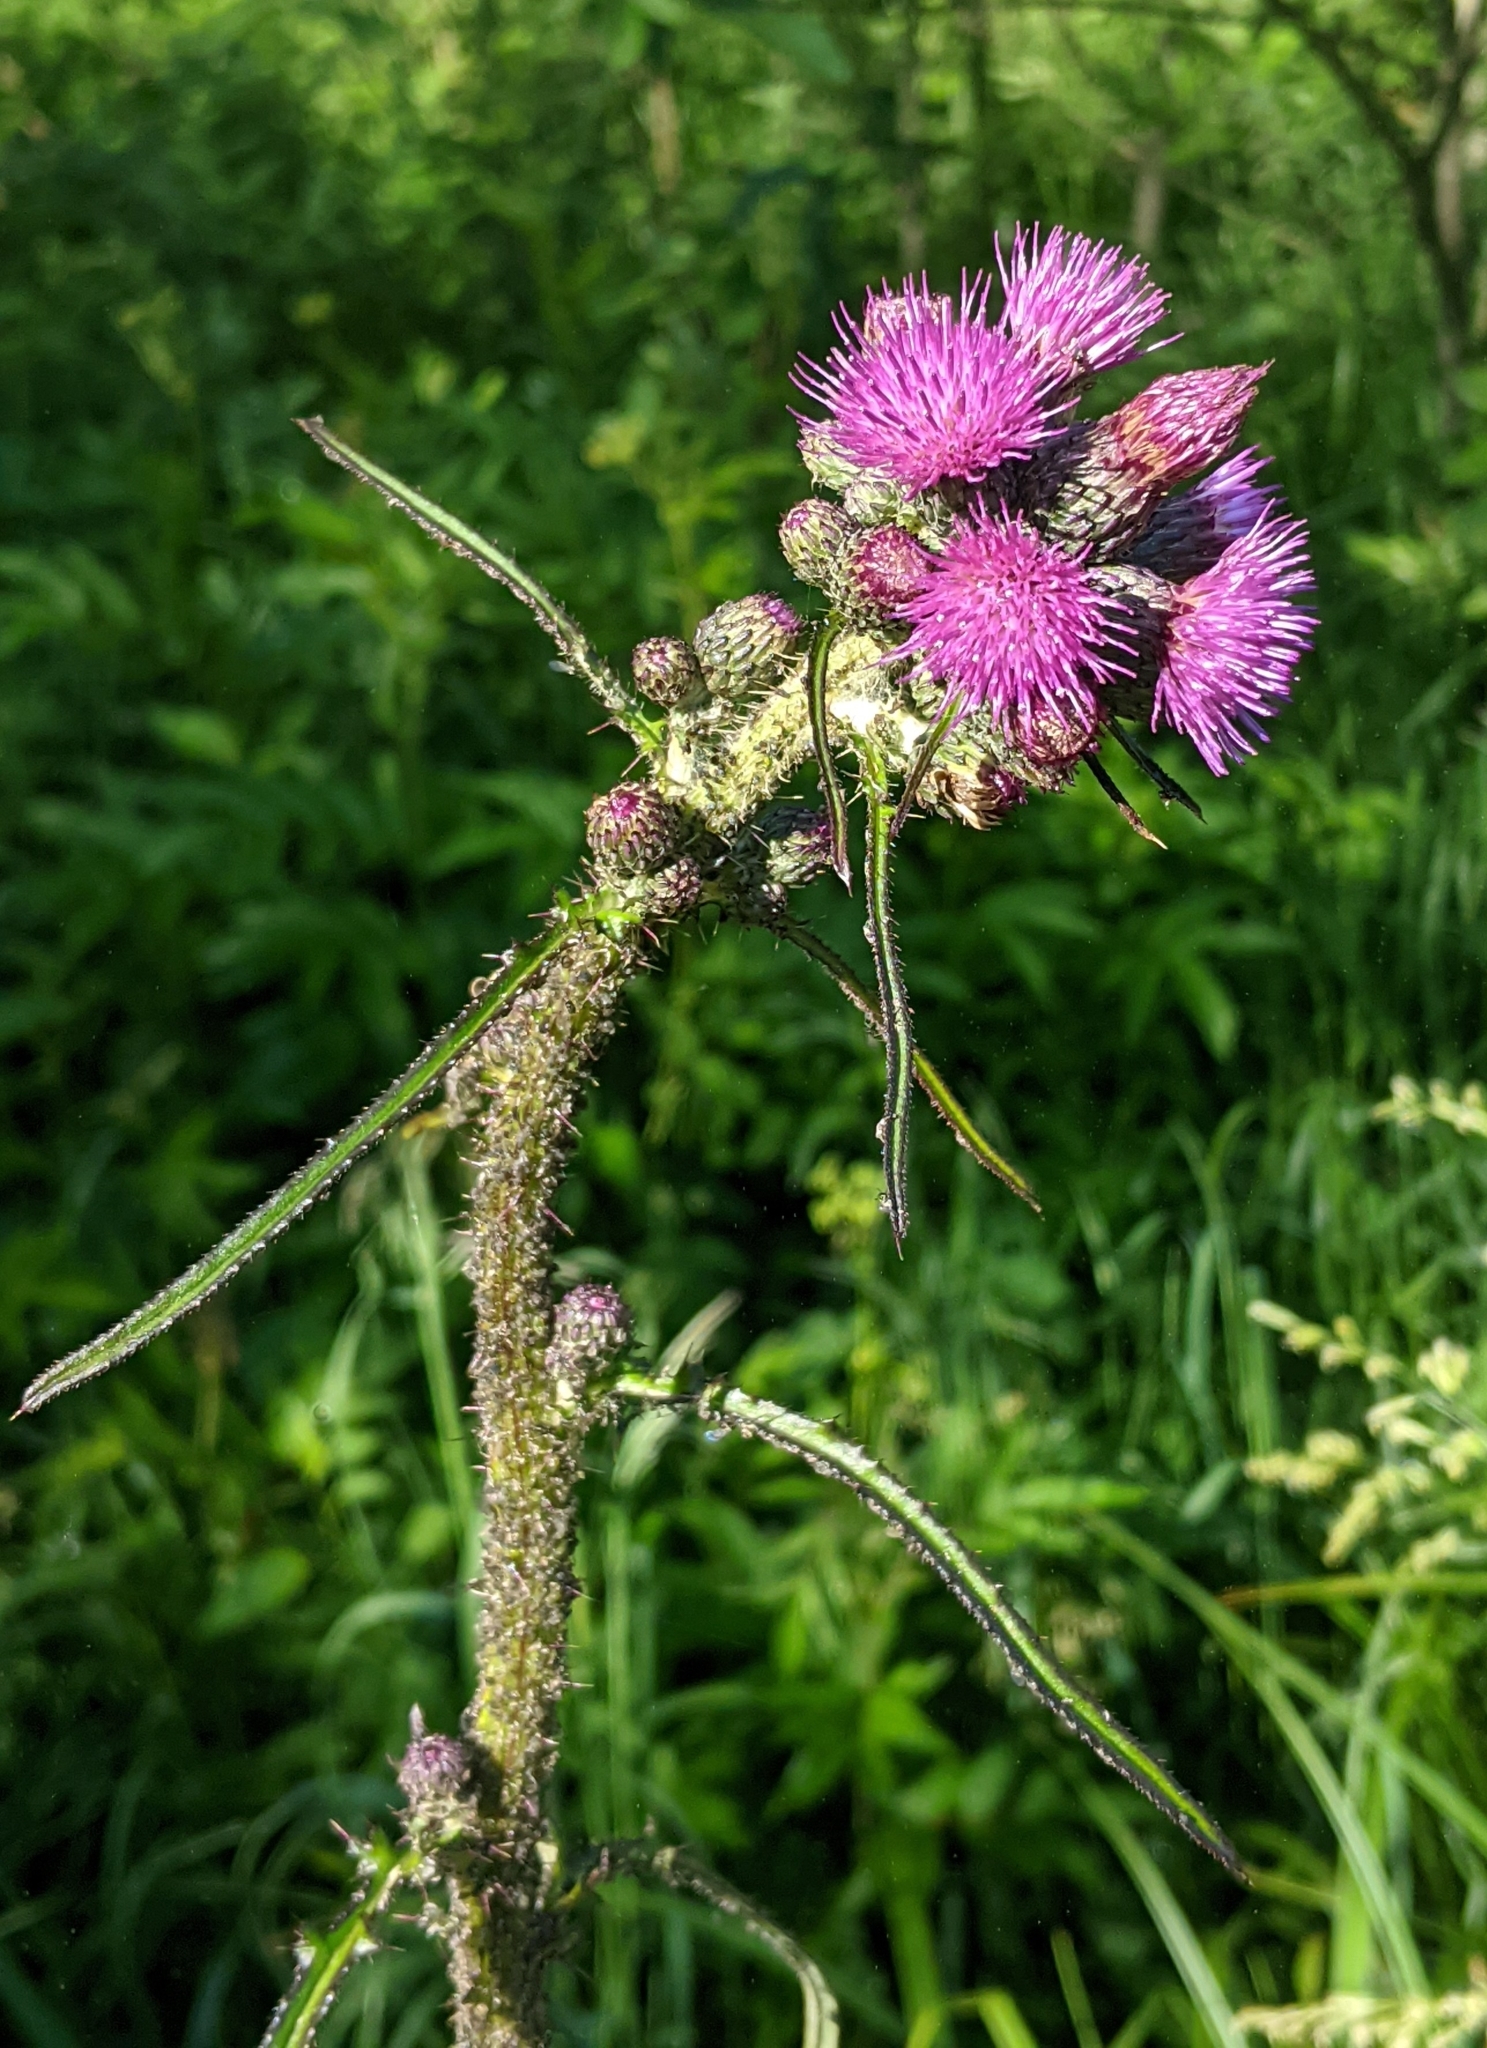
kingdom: Plantae
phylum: Tracheophyta
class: Magnoliopsida
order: Asterales
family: Asteraceae
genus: Cirsium
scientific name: Cirsium palustre
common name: Marsh thistle
